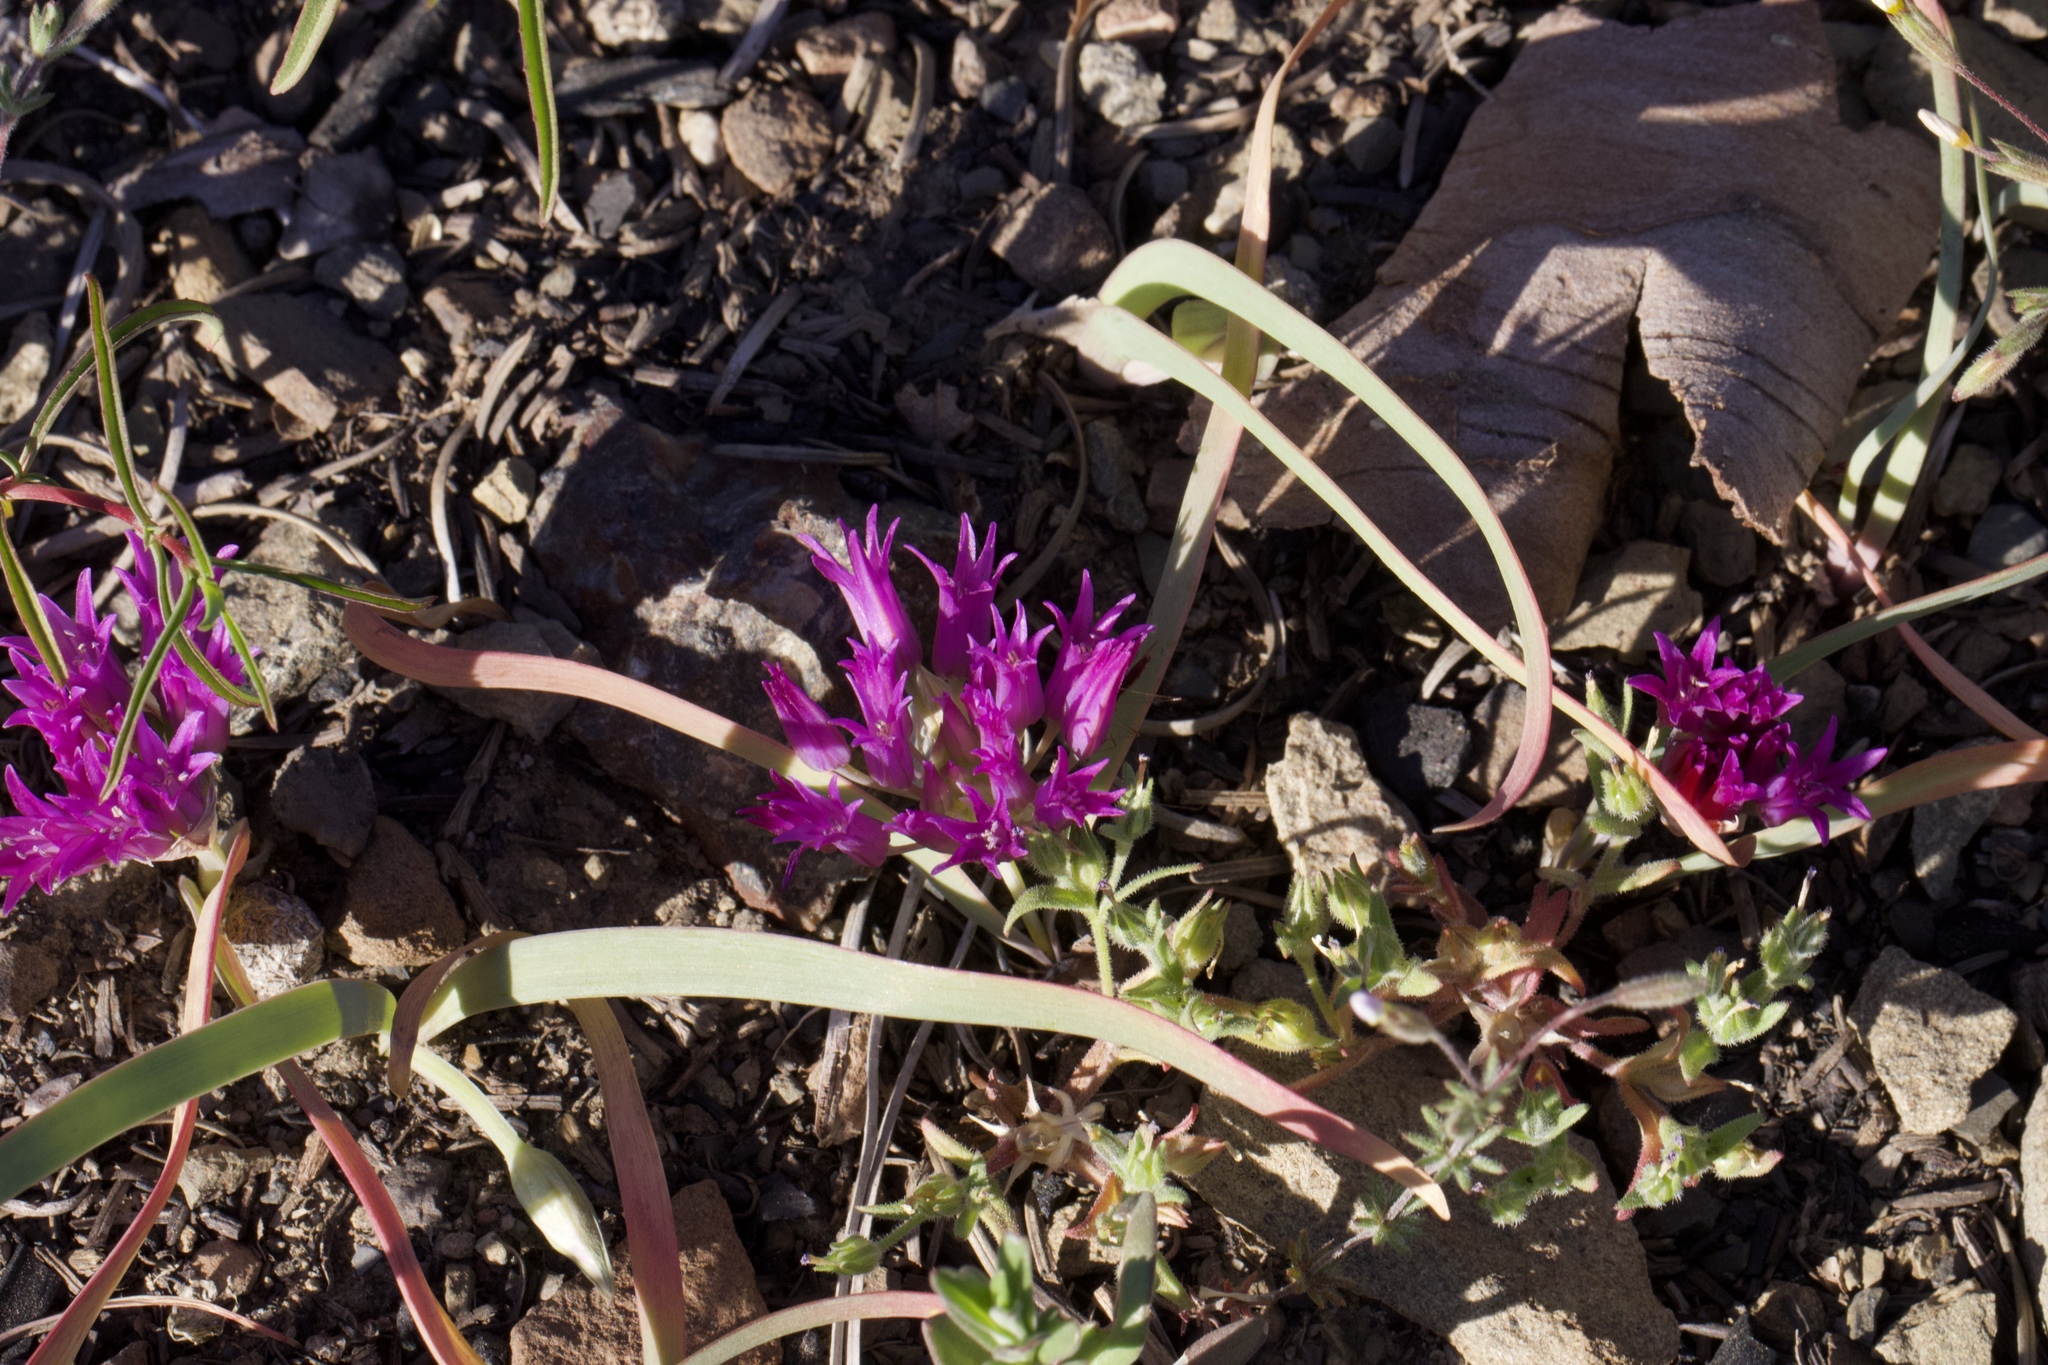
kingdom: Plantae
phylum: Tracheophyta
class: Liliopsida
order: Asparagales
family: Amaryllidaceae
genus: Allium
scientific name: Allium falcifolium
